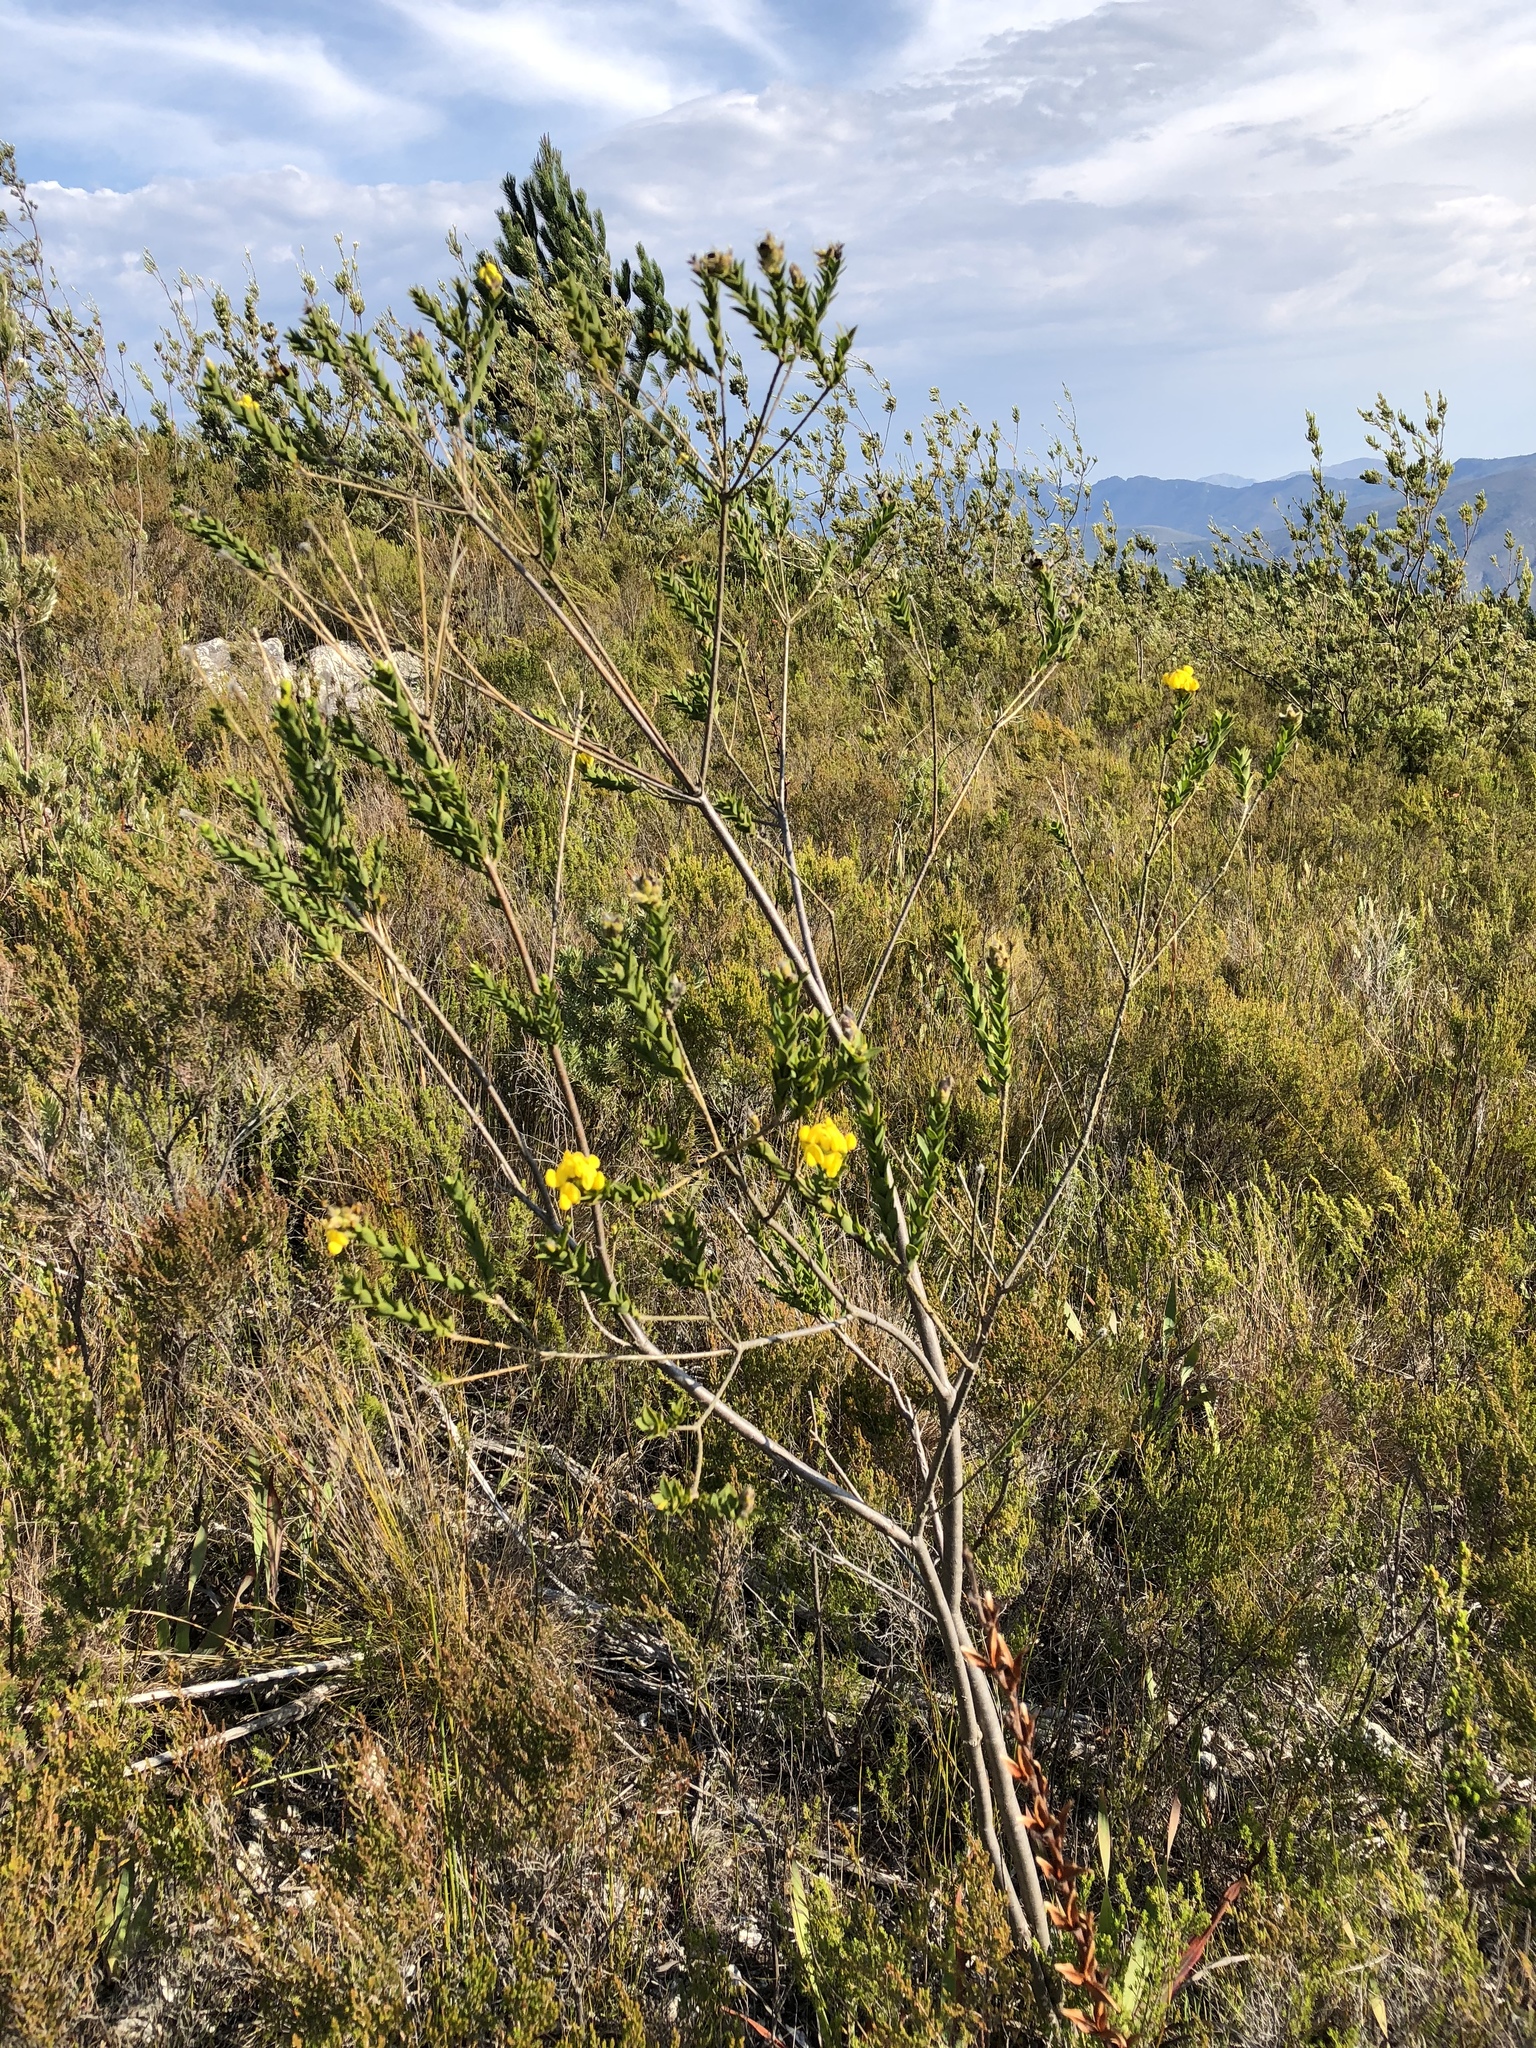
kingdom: Plantae
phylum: Tracheophyta
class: Magnoliopsida
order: Fabales
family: Fabaceae
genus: Liparia
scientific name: Liparia hirsuta
